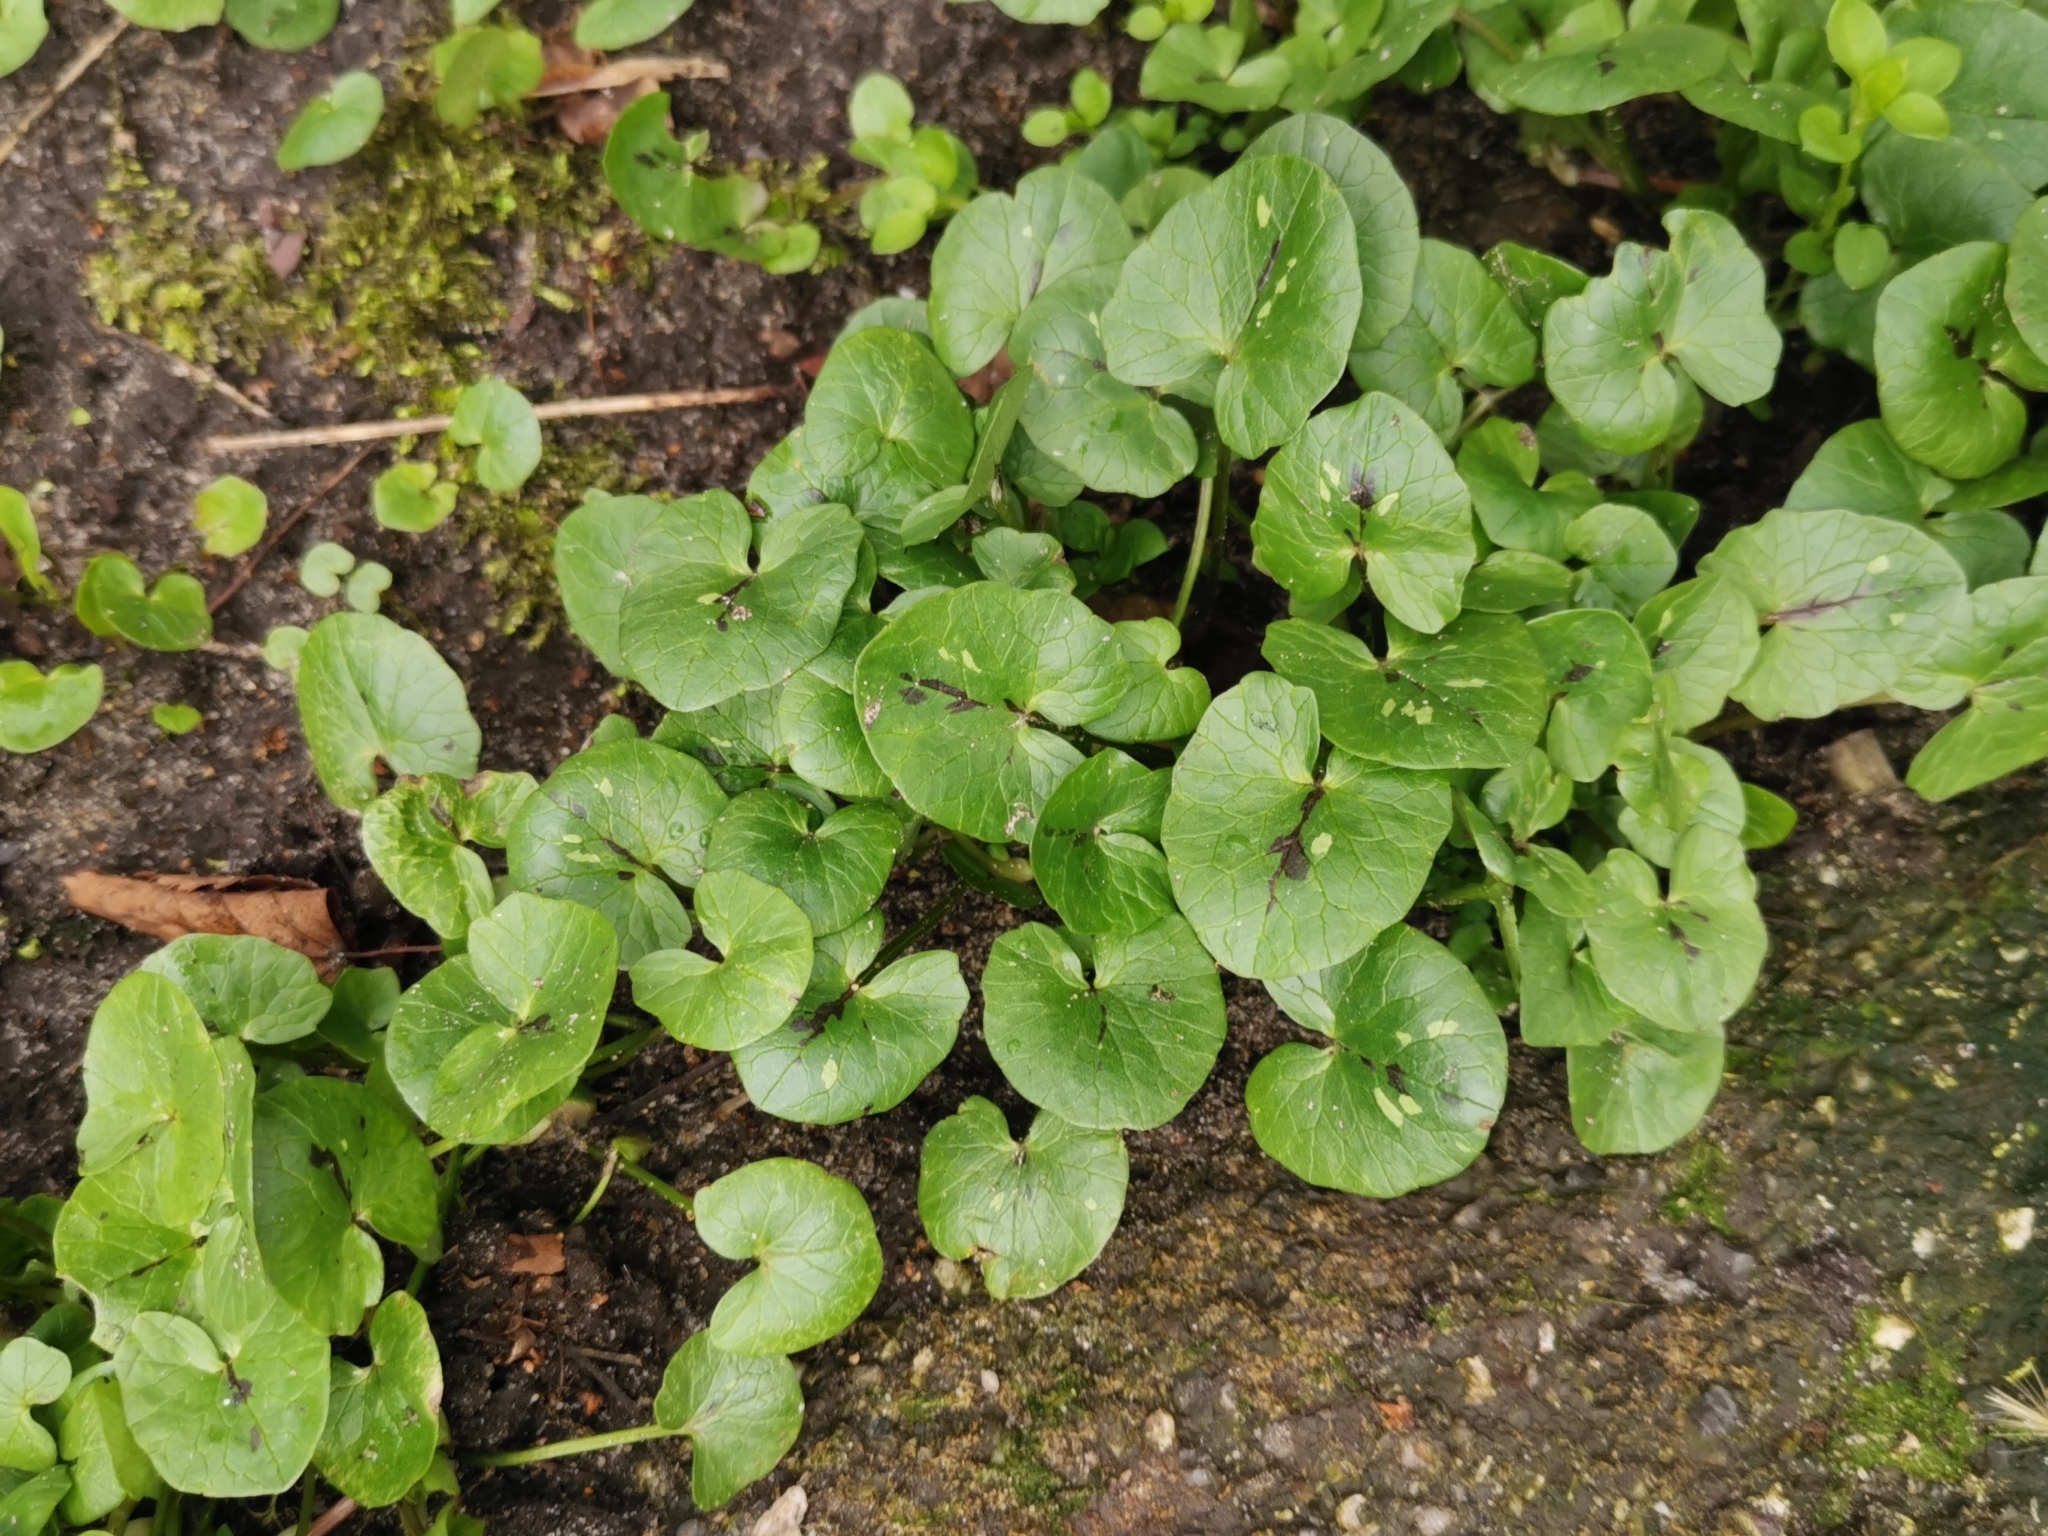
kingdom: Plantae
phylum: Tracheophyta
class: Magnoliopsida
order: Ranunculales
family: Ranunculaceae
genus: Ficaria
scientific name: Ficaria verna
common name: Lesser celandine
